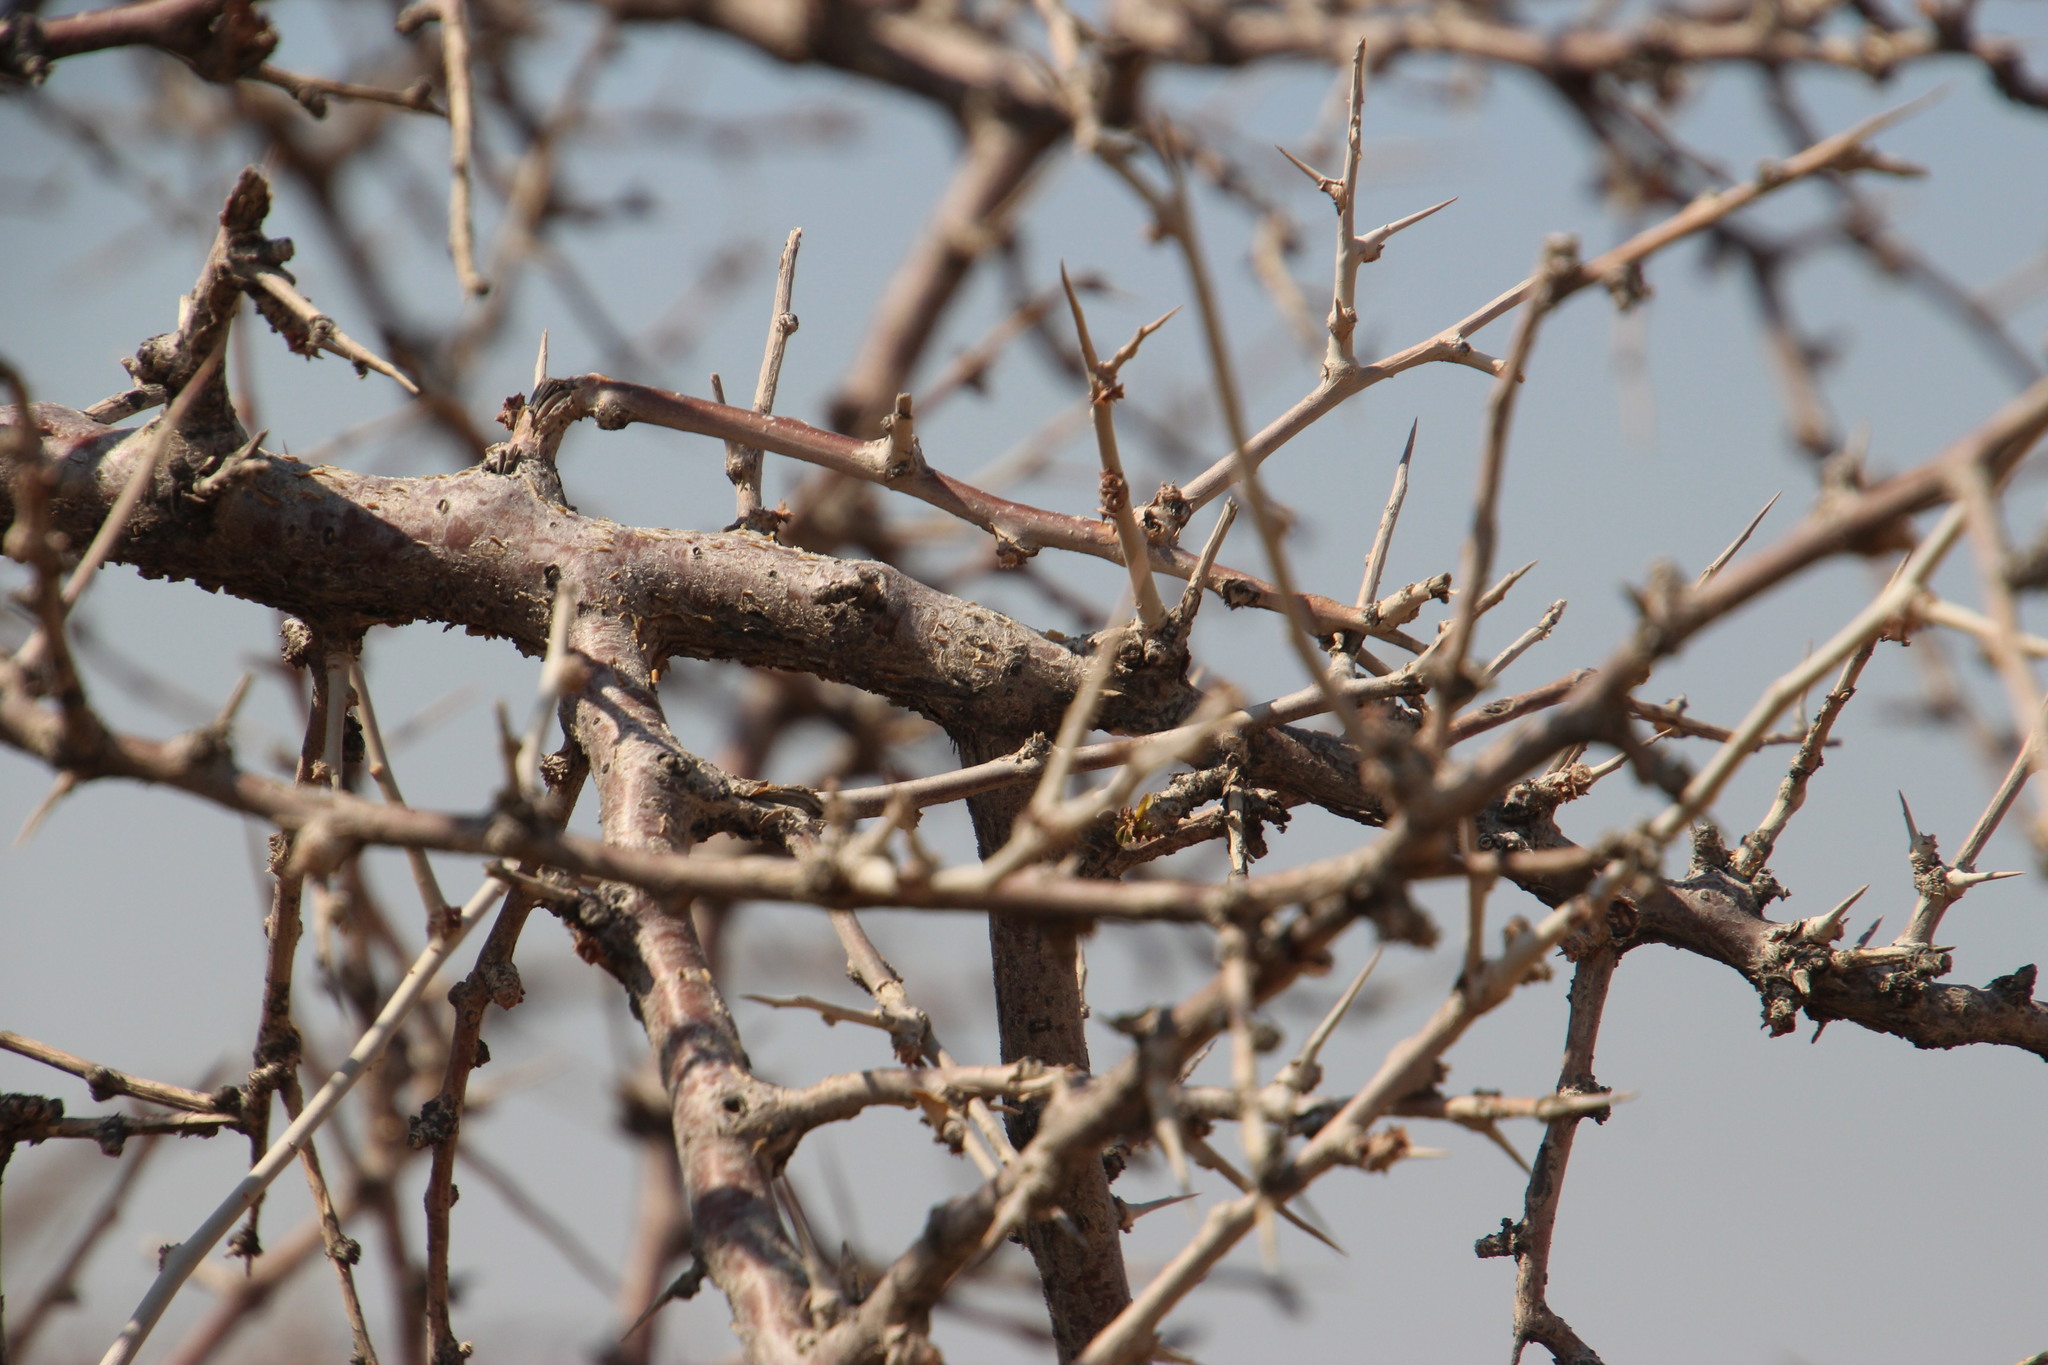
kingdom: Plantae
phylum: Tracheophyta
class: Magnoliopsida
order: Sapindales
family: Burseraceae
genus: Commiphora
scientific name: Commiphora glandulosa
